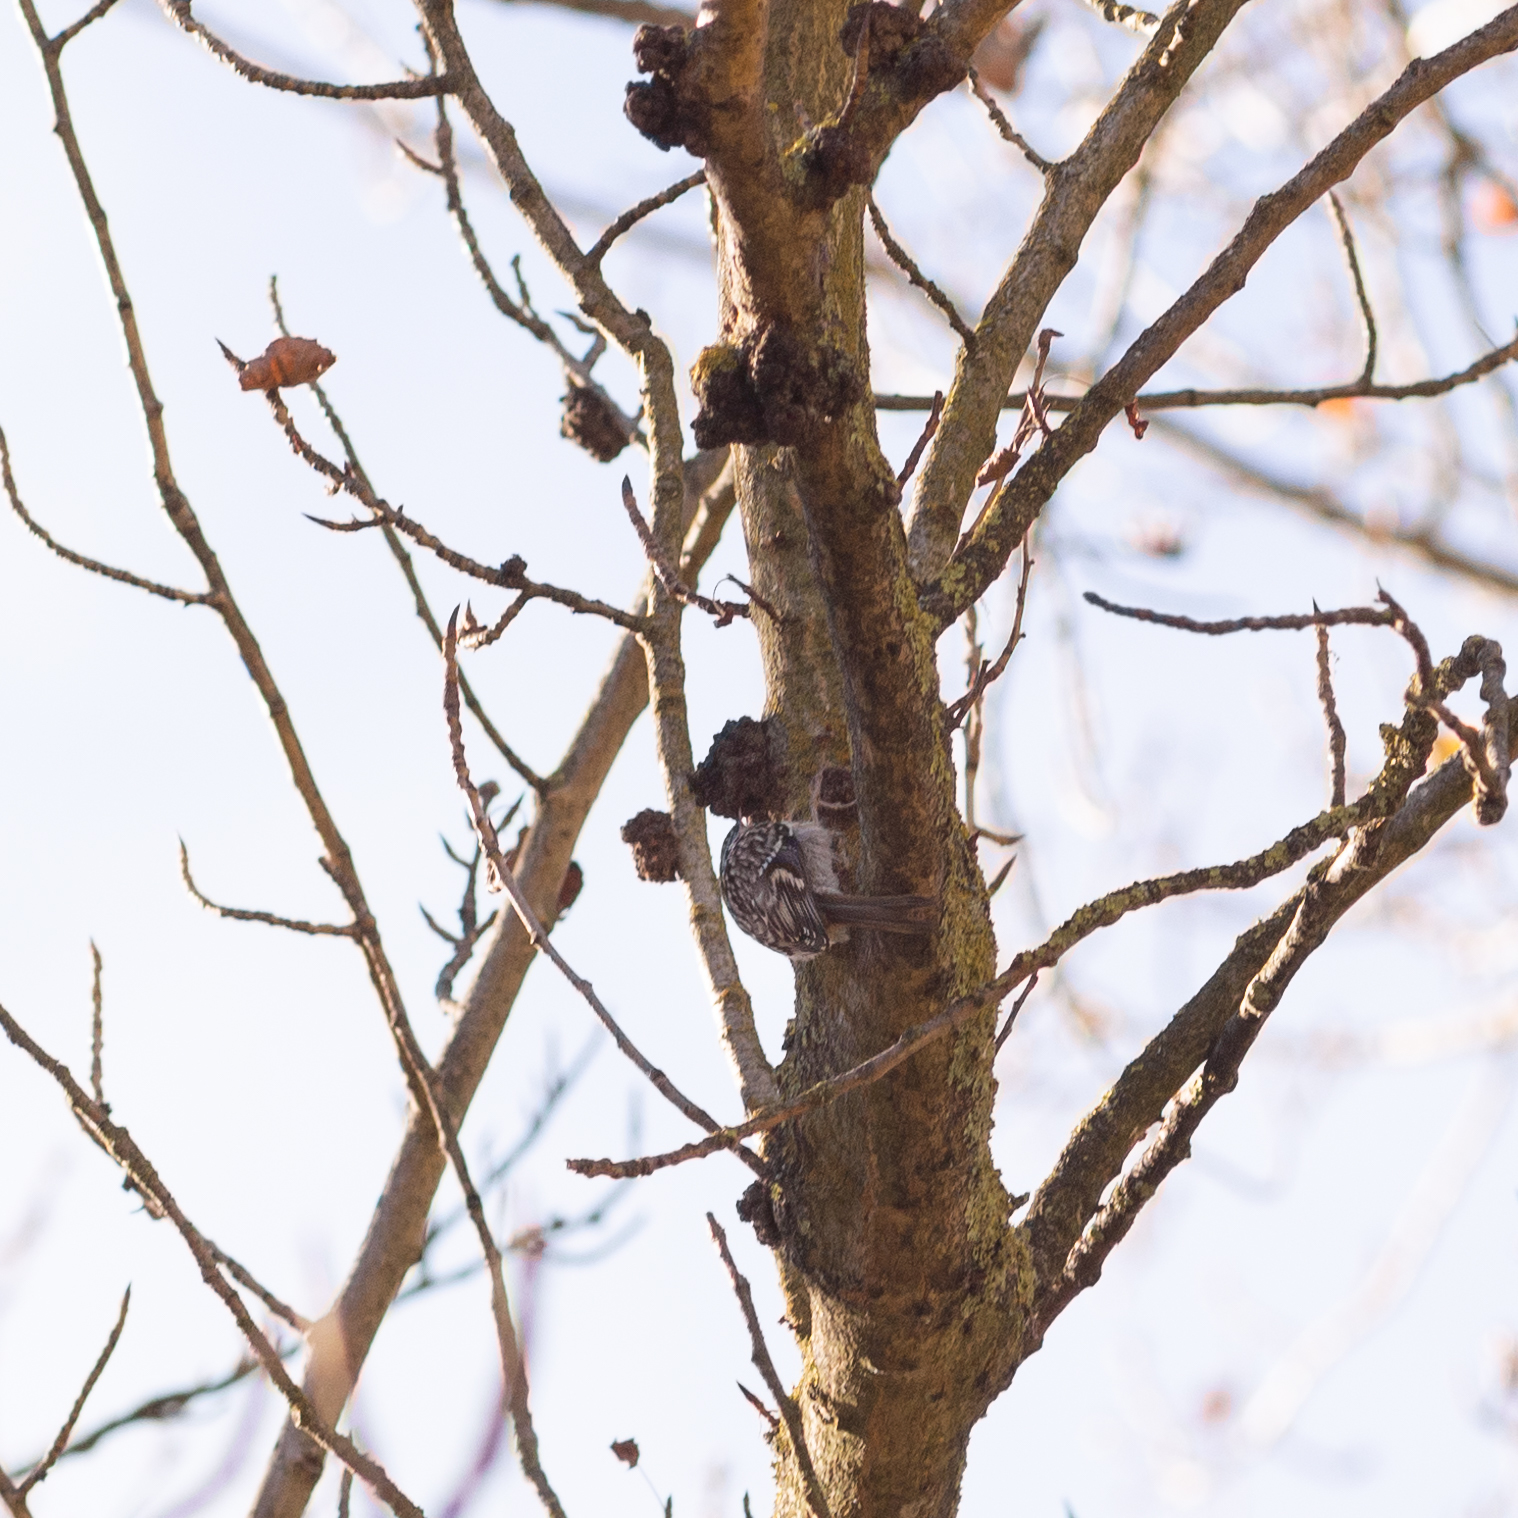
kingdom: Animalia
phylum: Chordata
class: Aves
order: Passeriformes
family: Certhiidae
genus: Certhia
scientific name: Certhia brachydactyla
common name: Short-toed treecreeper
